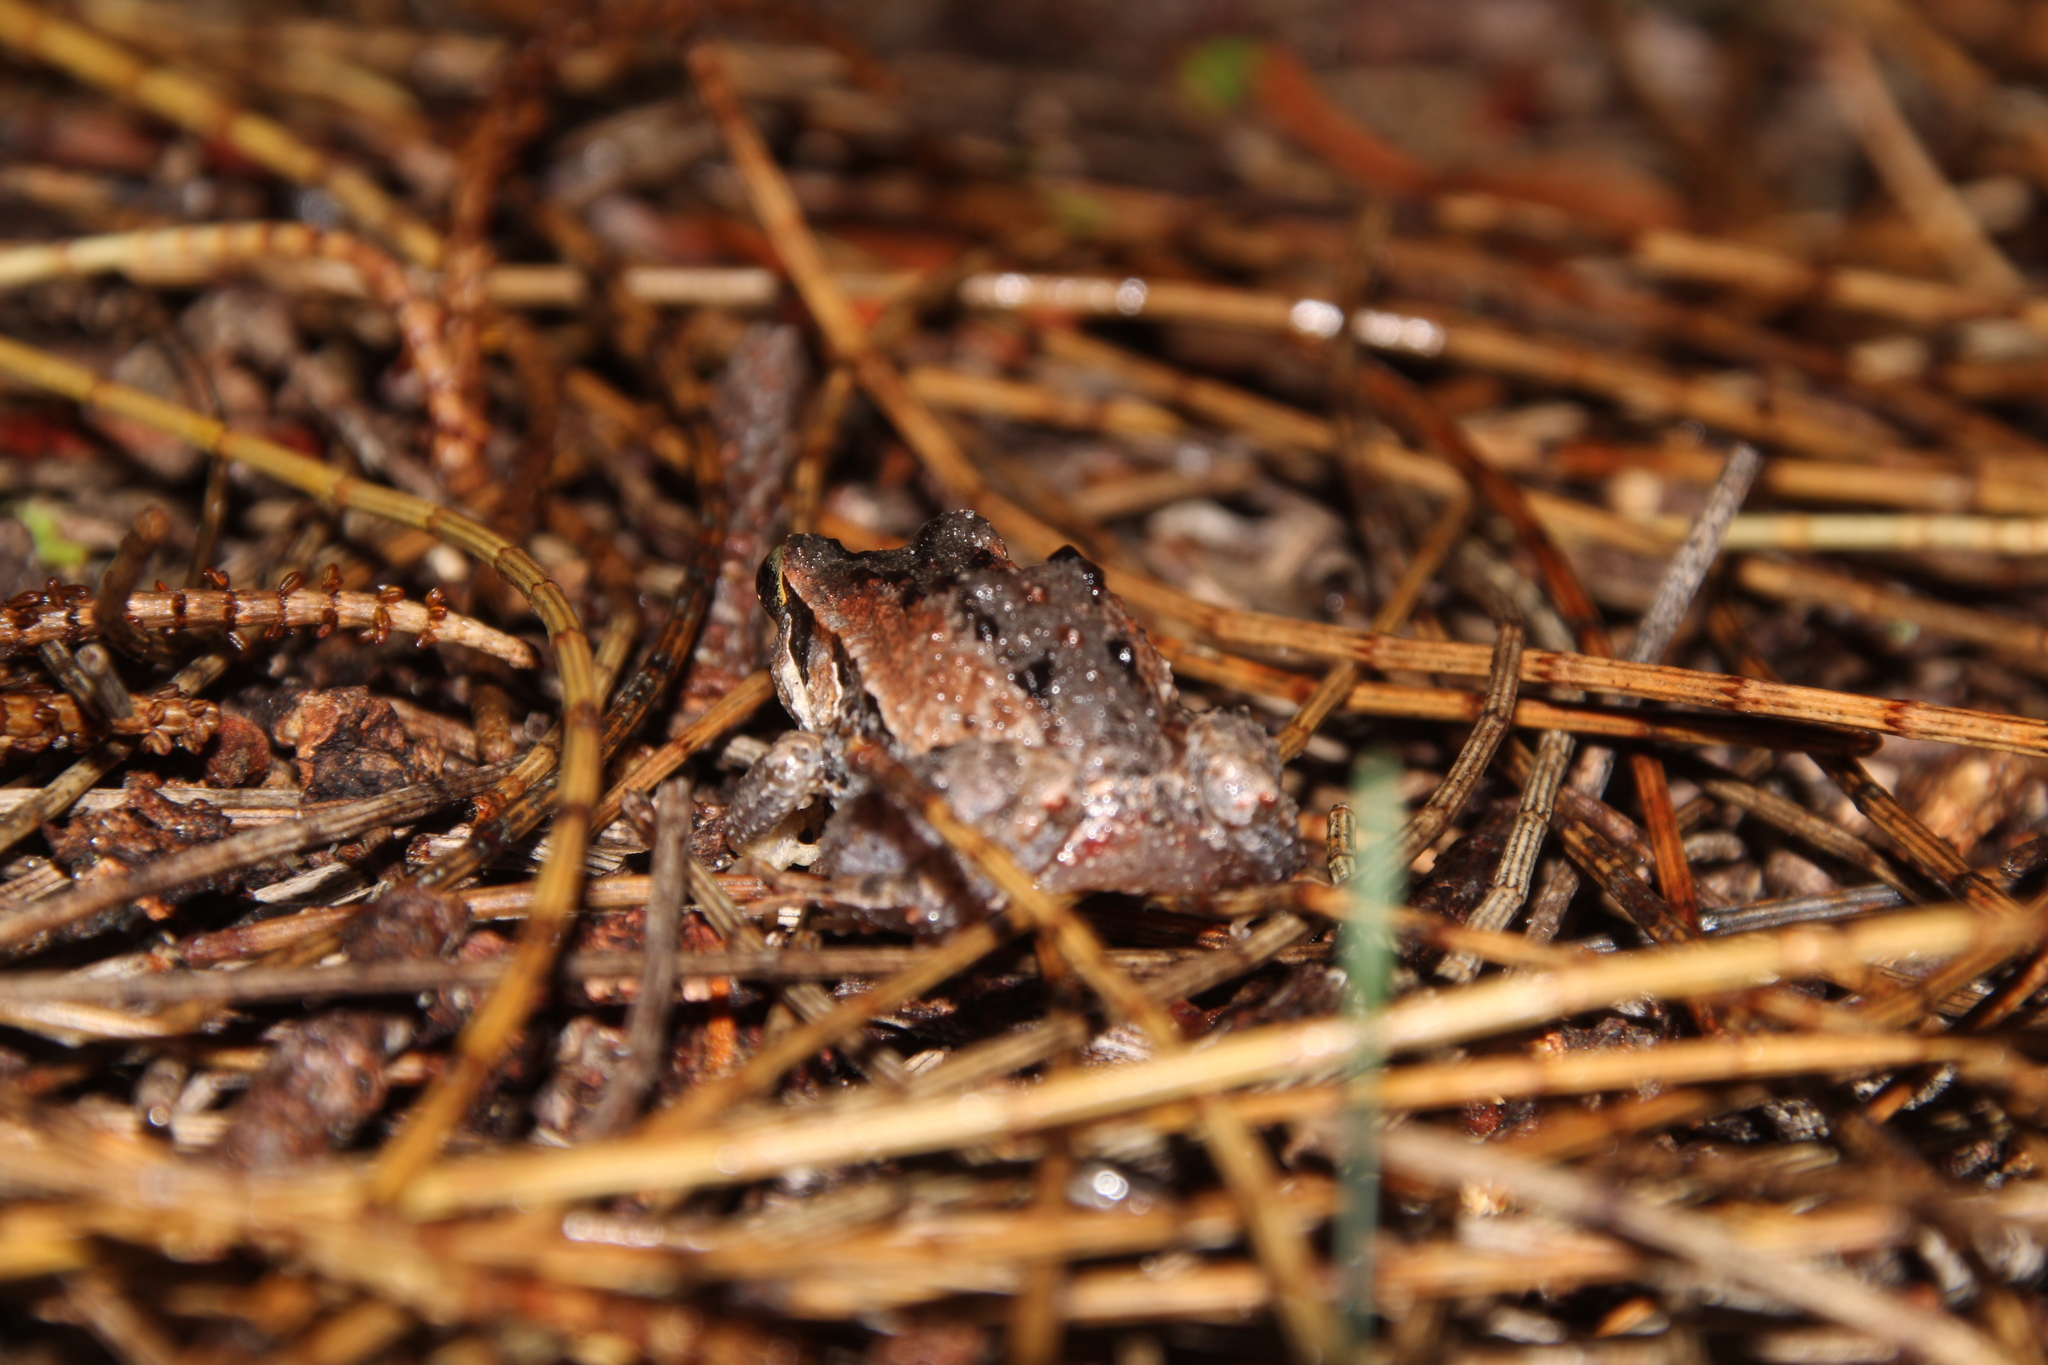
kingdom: Animalia
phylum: Chordata
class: Amphibia
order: Anura
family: Myobatrachidae
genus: Crinia
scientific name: Crinia georgiana
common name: Quacking frog
